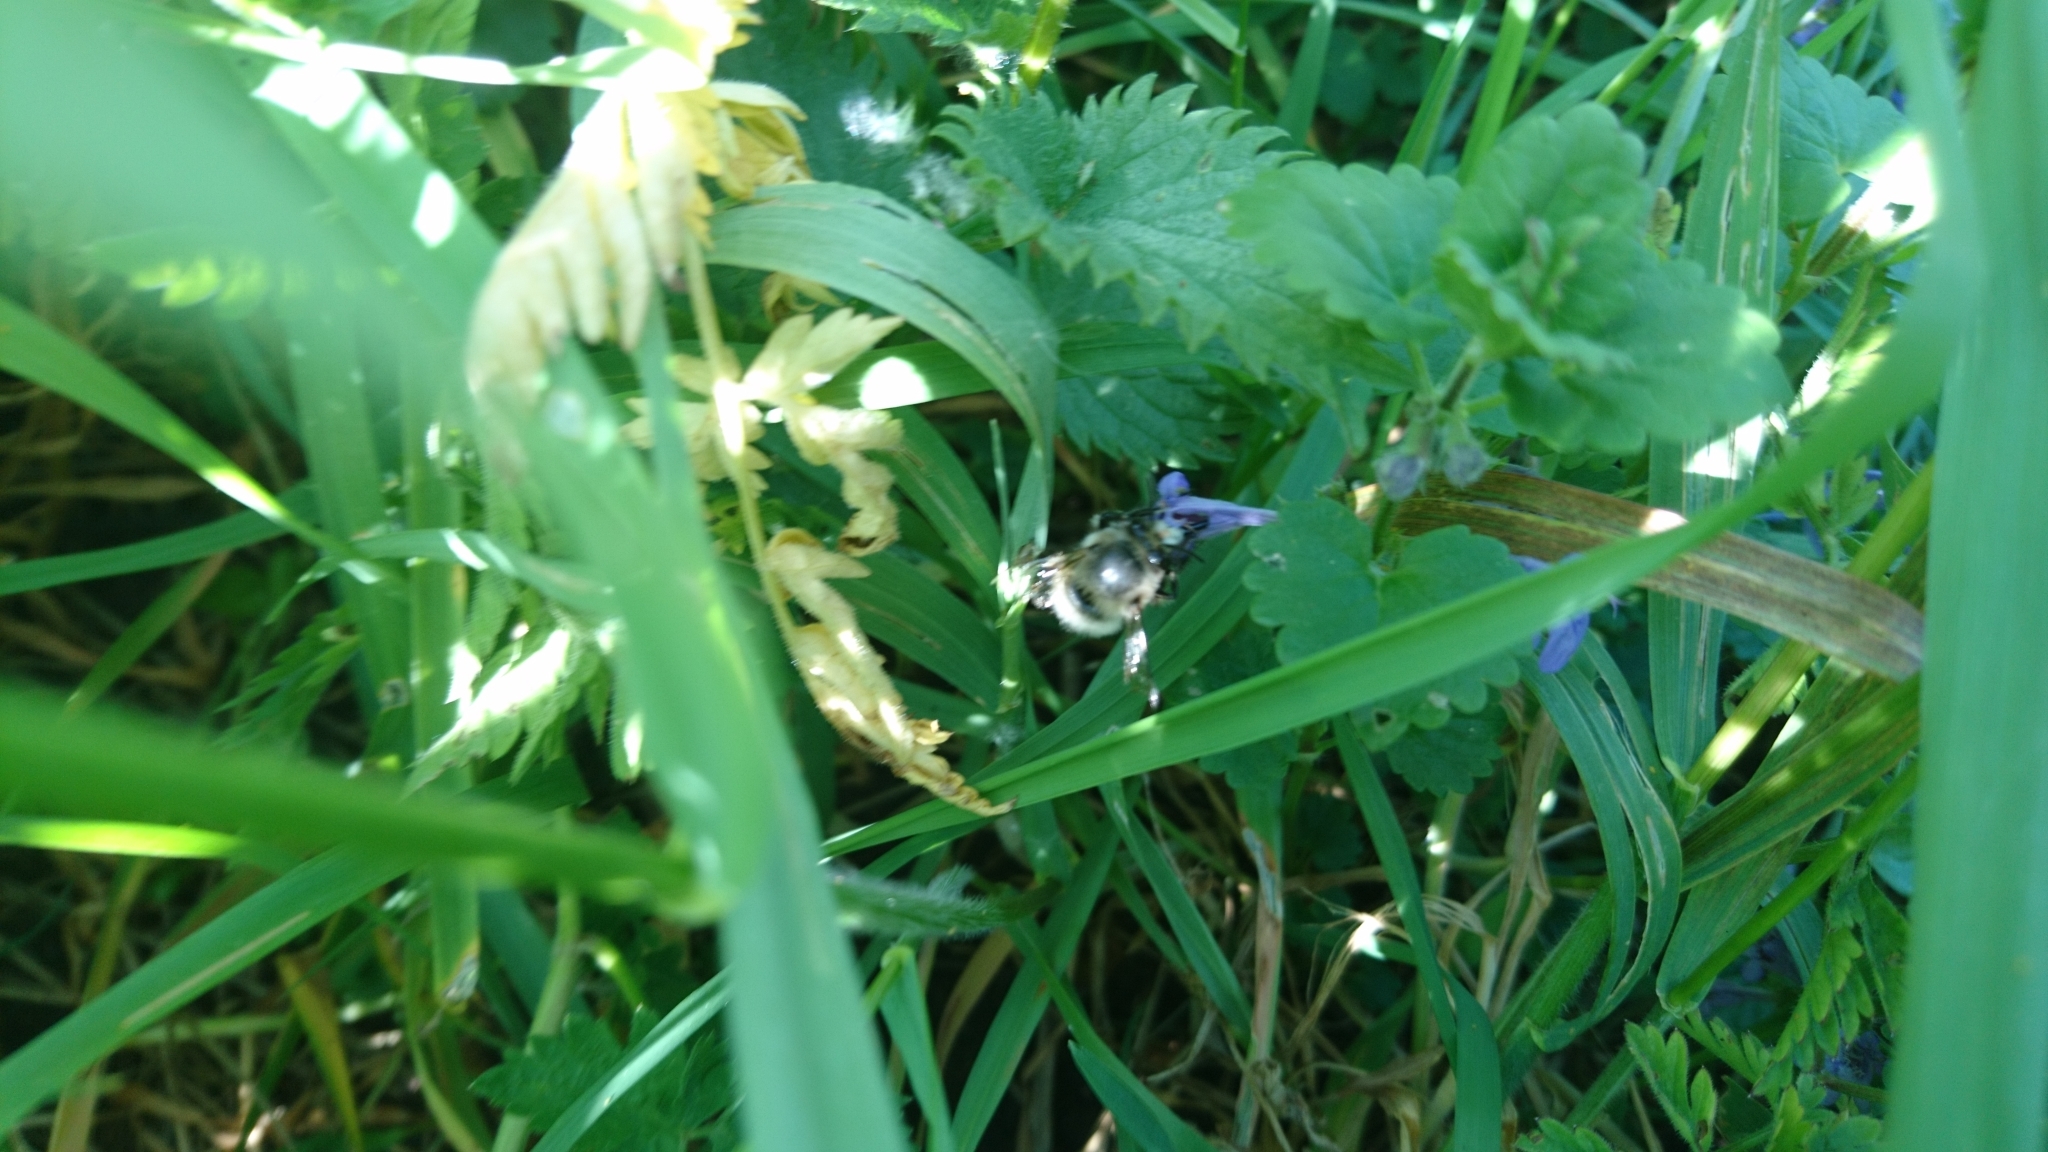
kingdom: Animalia
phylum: Arthropoda
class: Insecta
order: Hymenoptera
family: Apidae
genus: Anthophora
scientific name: Anthophora plumipes
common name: Hairy-footed flower bee
